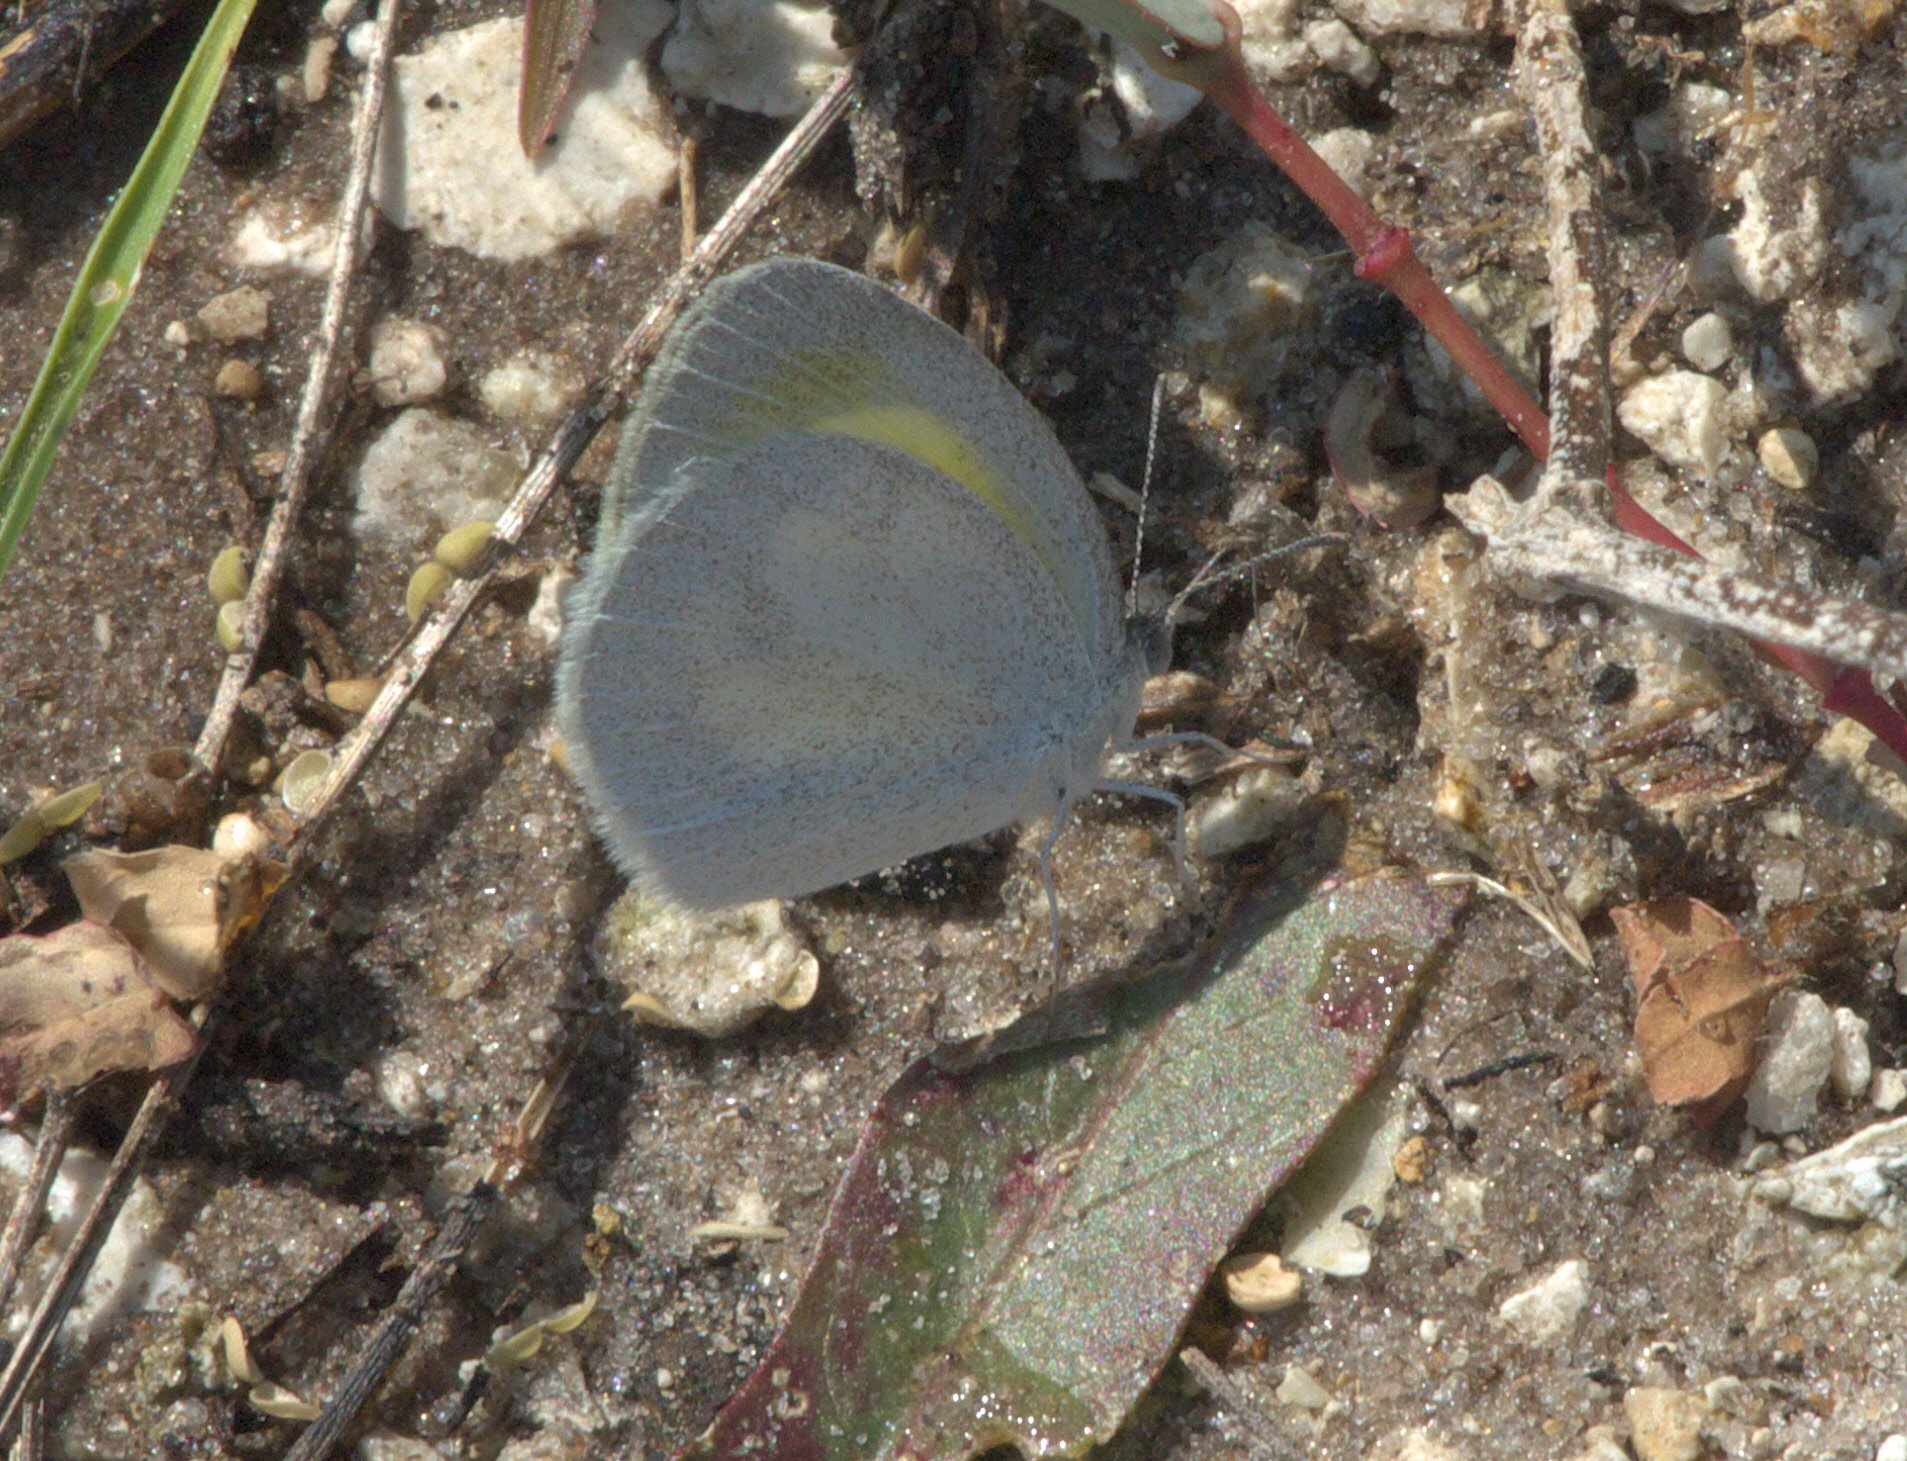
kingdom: Animalia
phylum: Arthropoda
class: Insecta
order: Lepidoptera
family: Pieridae
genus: Eurema
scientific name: Eurema daira
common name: Barred sulphur
